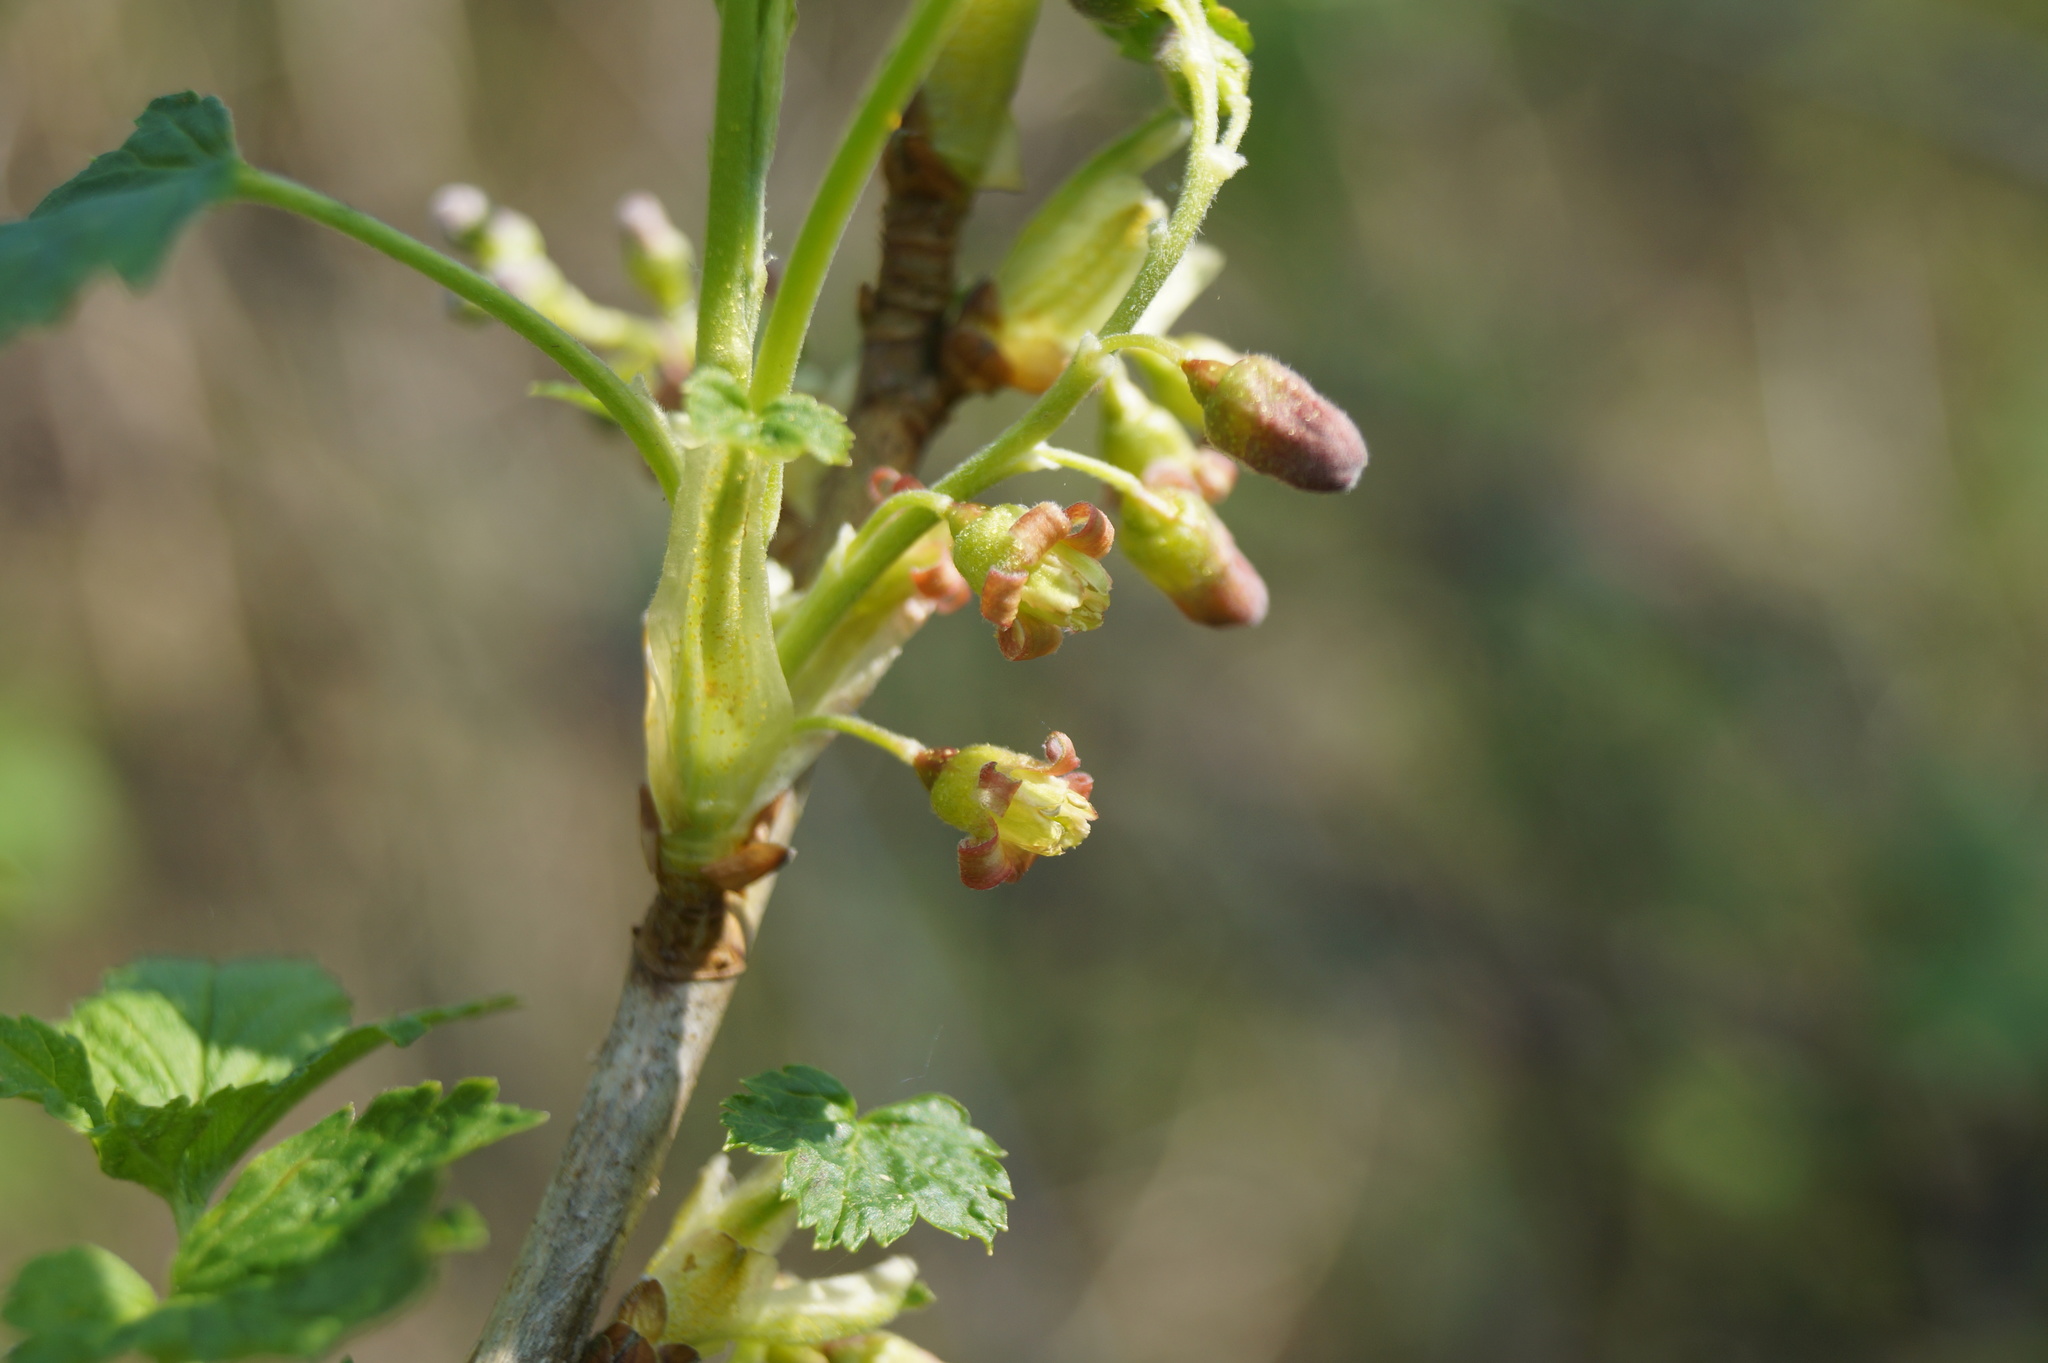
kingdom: Plantae
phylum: Tracheophyta
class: Magnoliopsida
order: Saxifragales
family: Grossulariaceae
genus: Ribes
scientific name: Ribes nigrum
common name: Black currant
